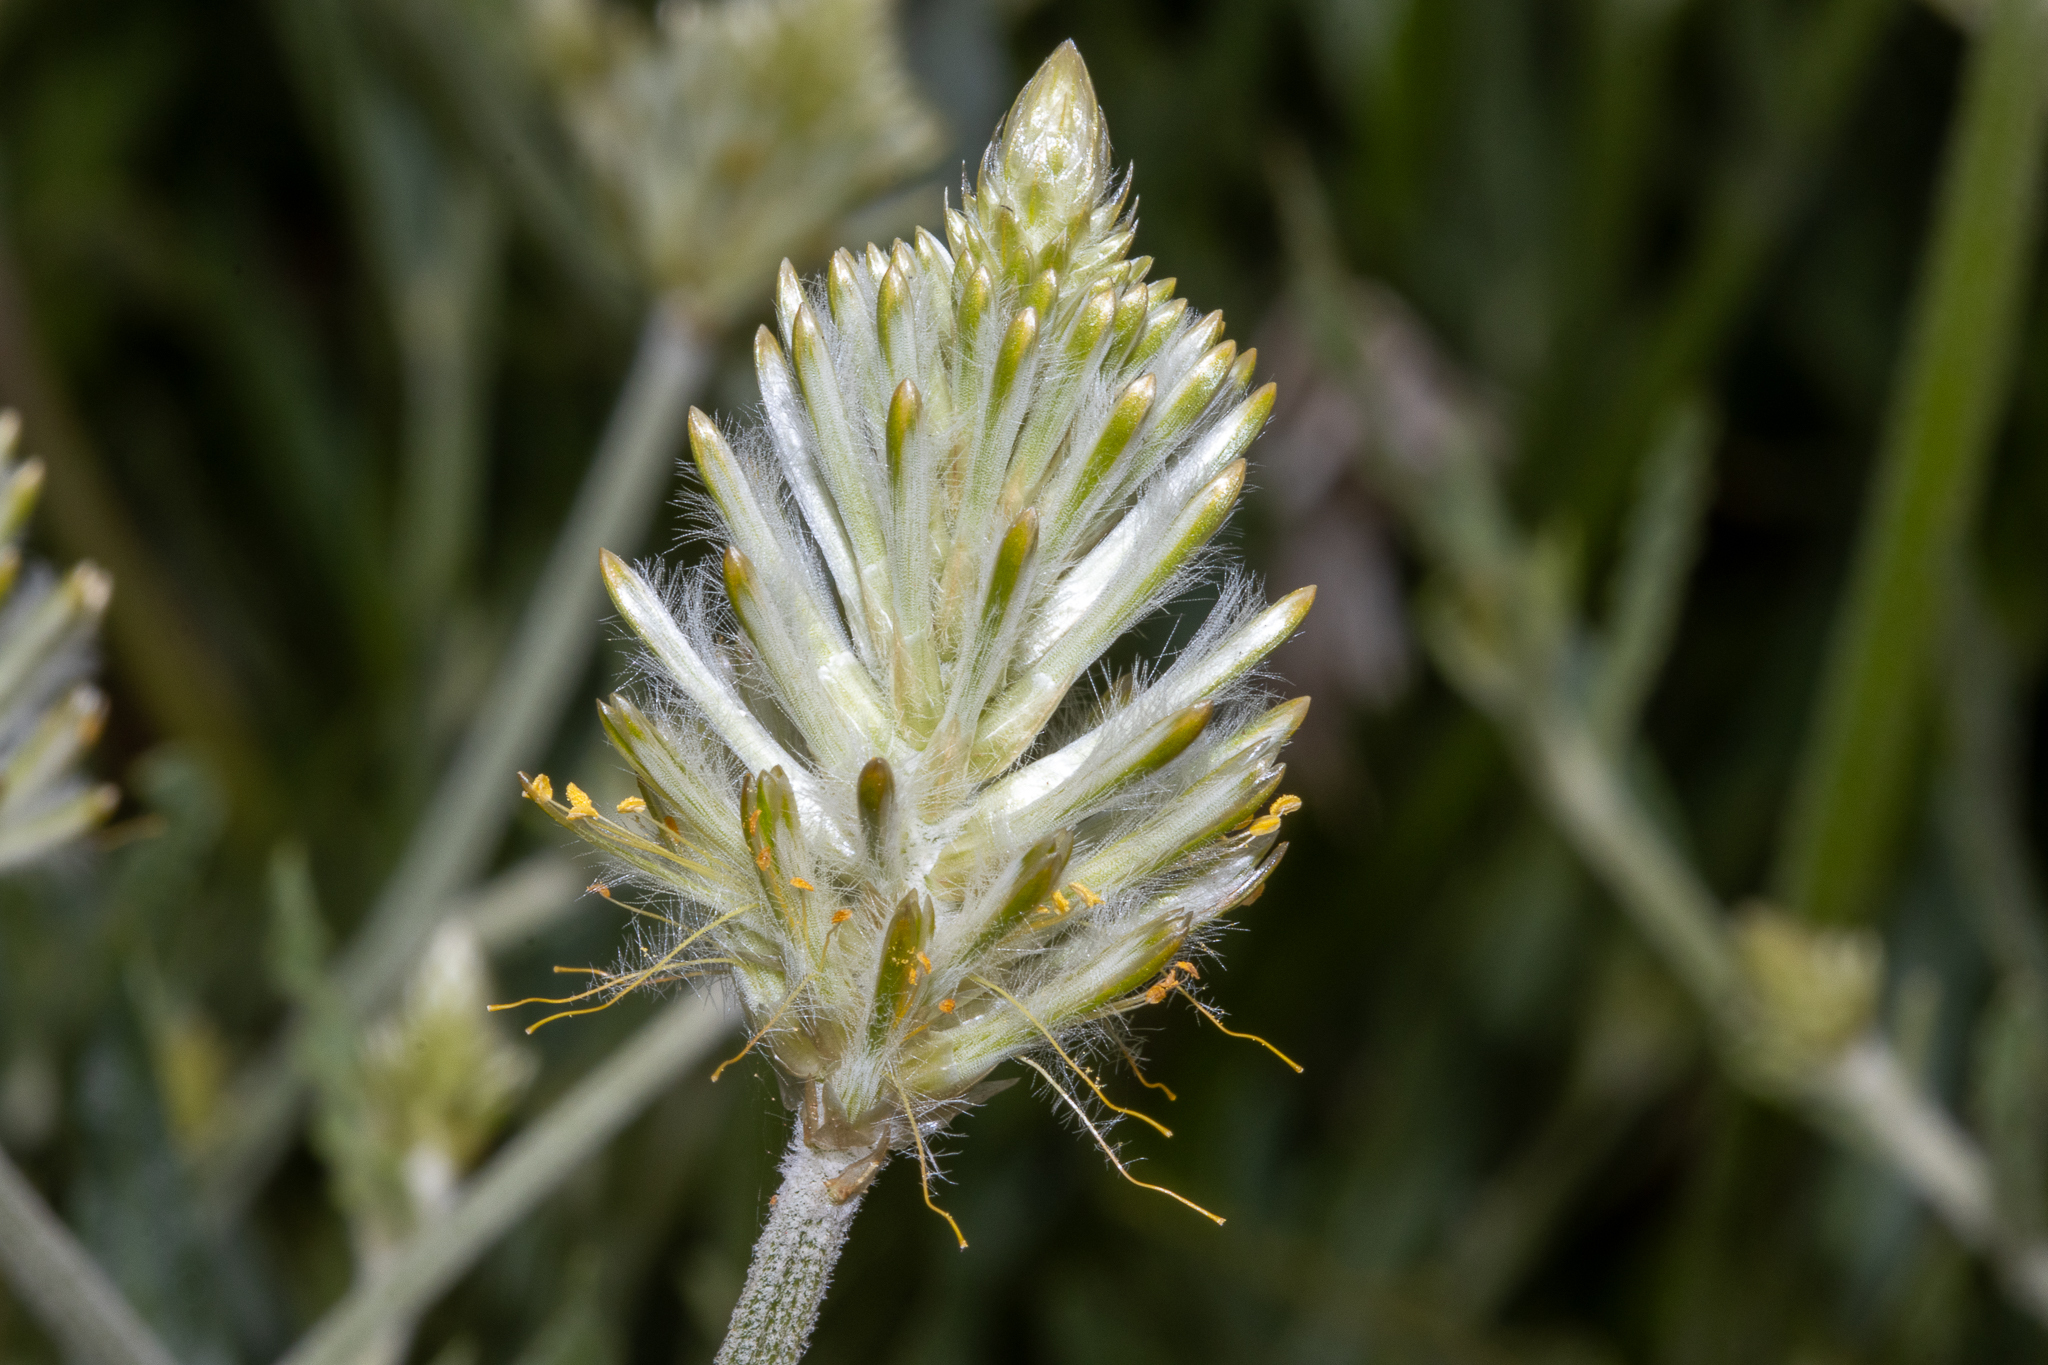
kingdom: Plantae
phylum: Tracheophyta
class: Magnoliopsida
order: Caryophyllales
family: Amaranthaceae
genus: Ptilotus
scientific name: Ptilotus polystachyus
